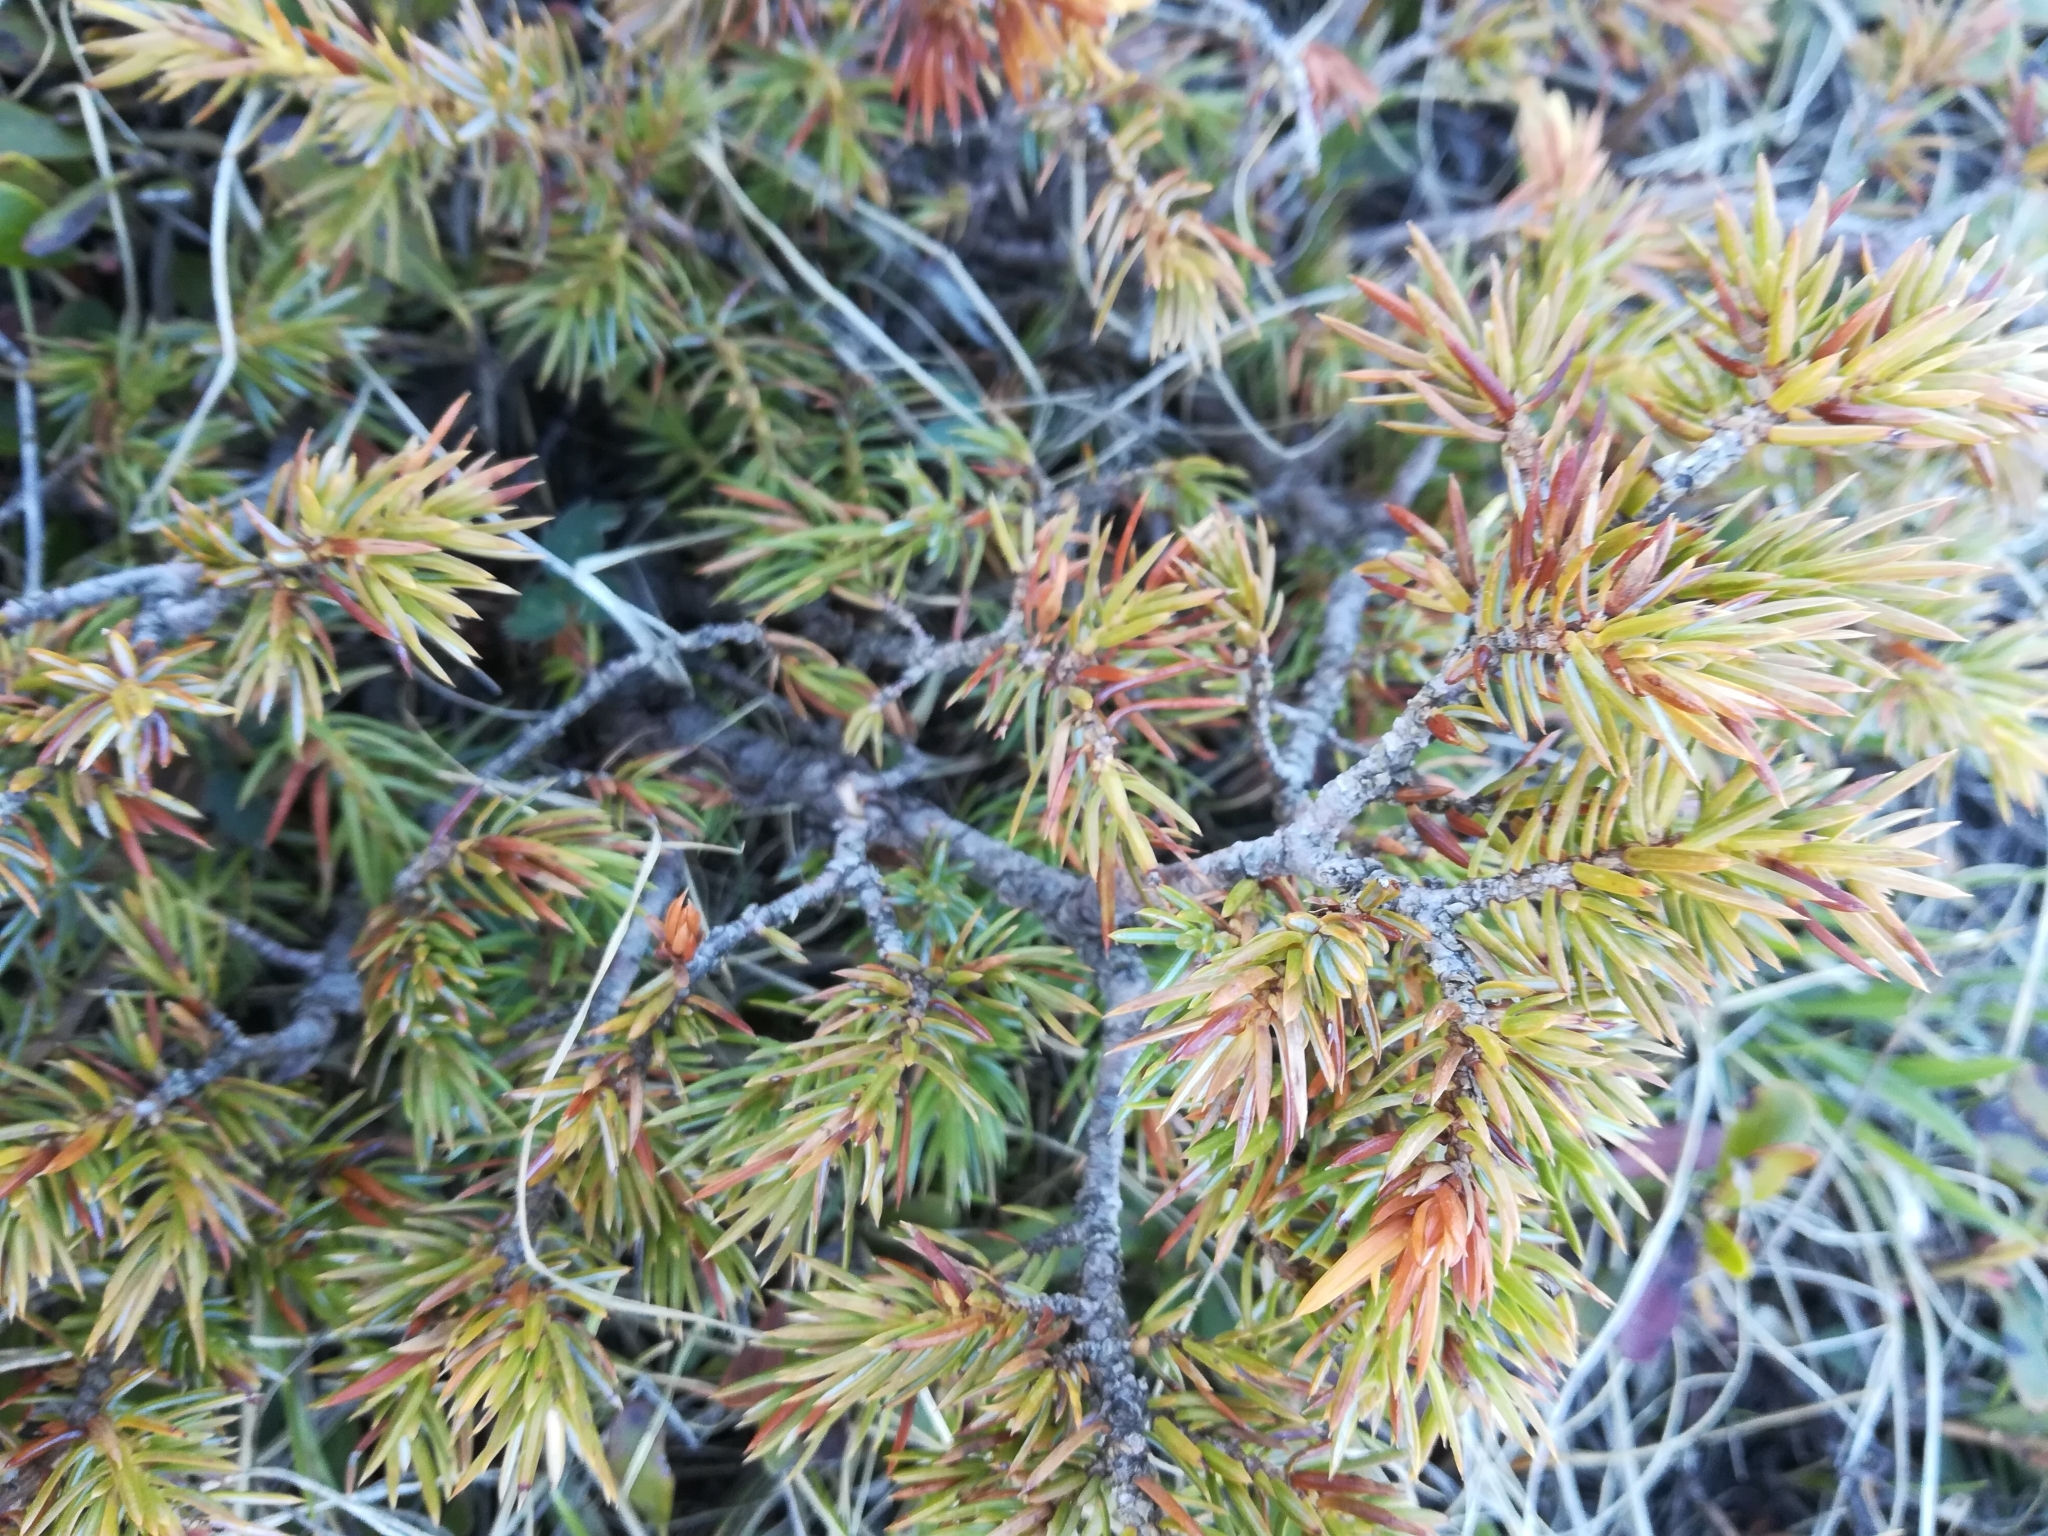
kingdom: Plantae
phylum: Tracheophyta
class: Pinopsida
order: Pinales
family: Cupressaceae
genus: Juniperus
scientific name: Juniperus communis
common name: Common juniper
